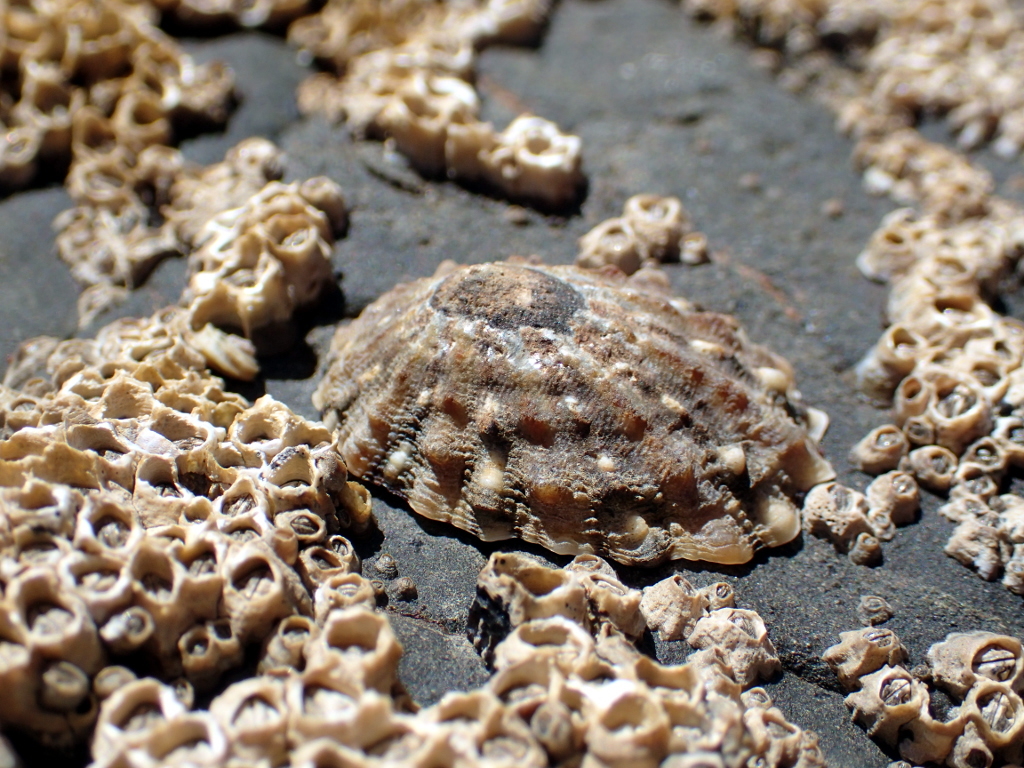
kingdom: Animalia
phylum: Mollusca
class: Gastropoda
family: Nacellidae
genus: Cellana
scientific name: Cellana ornata
